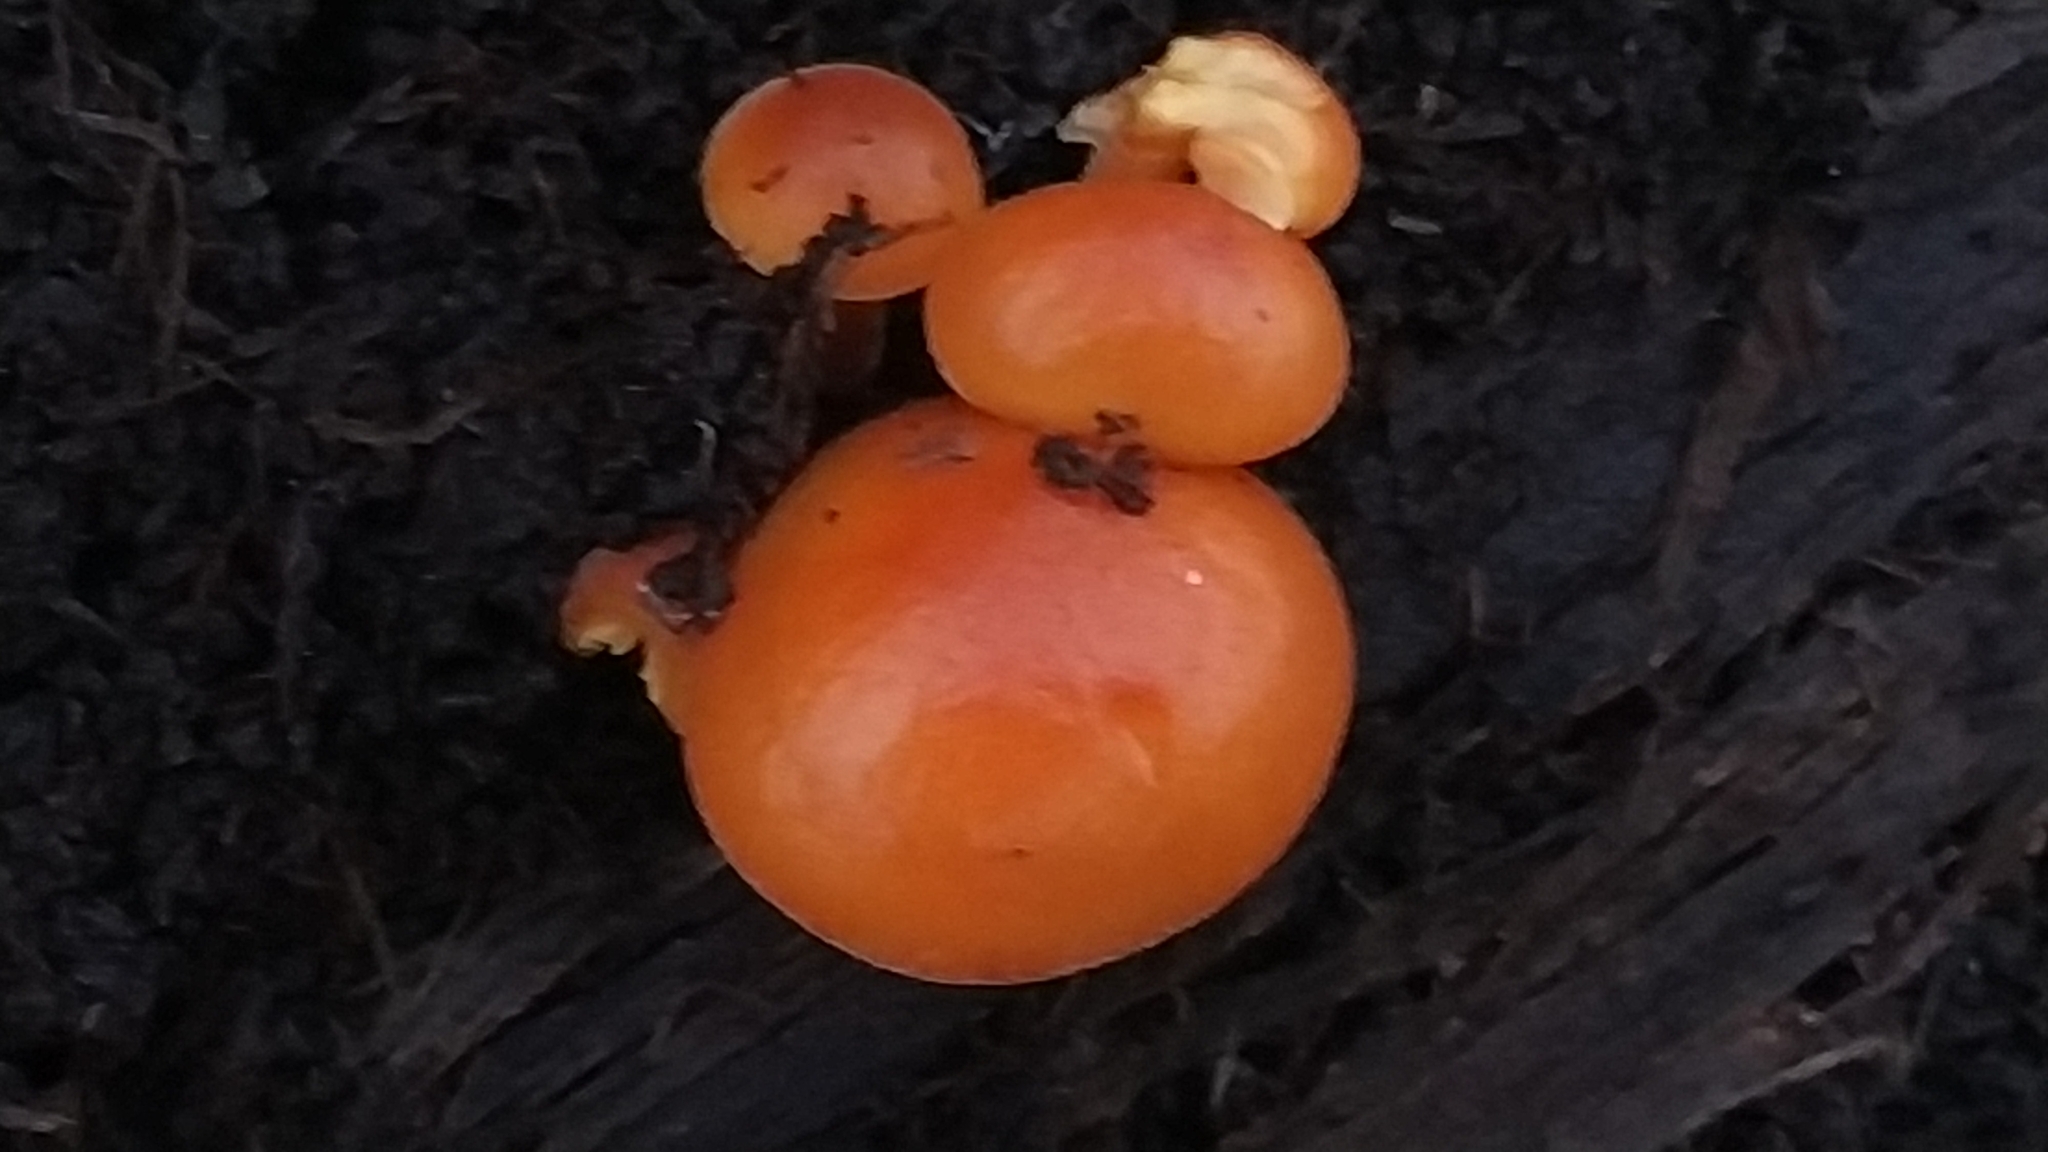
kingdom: Fungi
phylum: Basidiomycota
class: Agaricomycetes
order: Agaricales
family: Physalacriaceae
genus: Flammulina
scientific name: Flammulina
